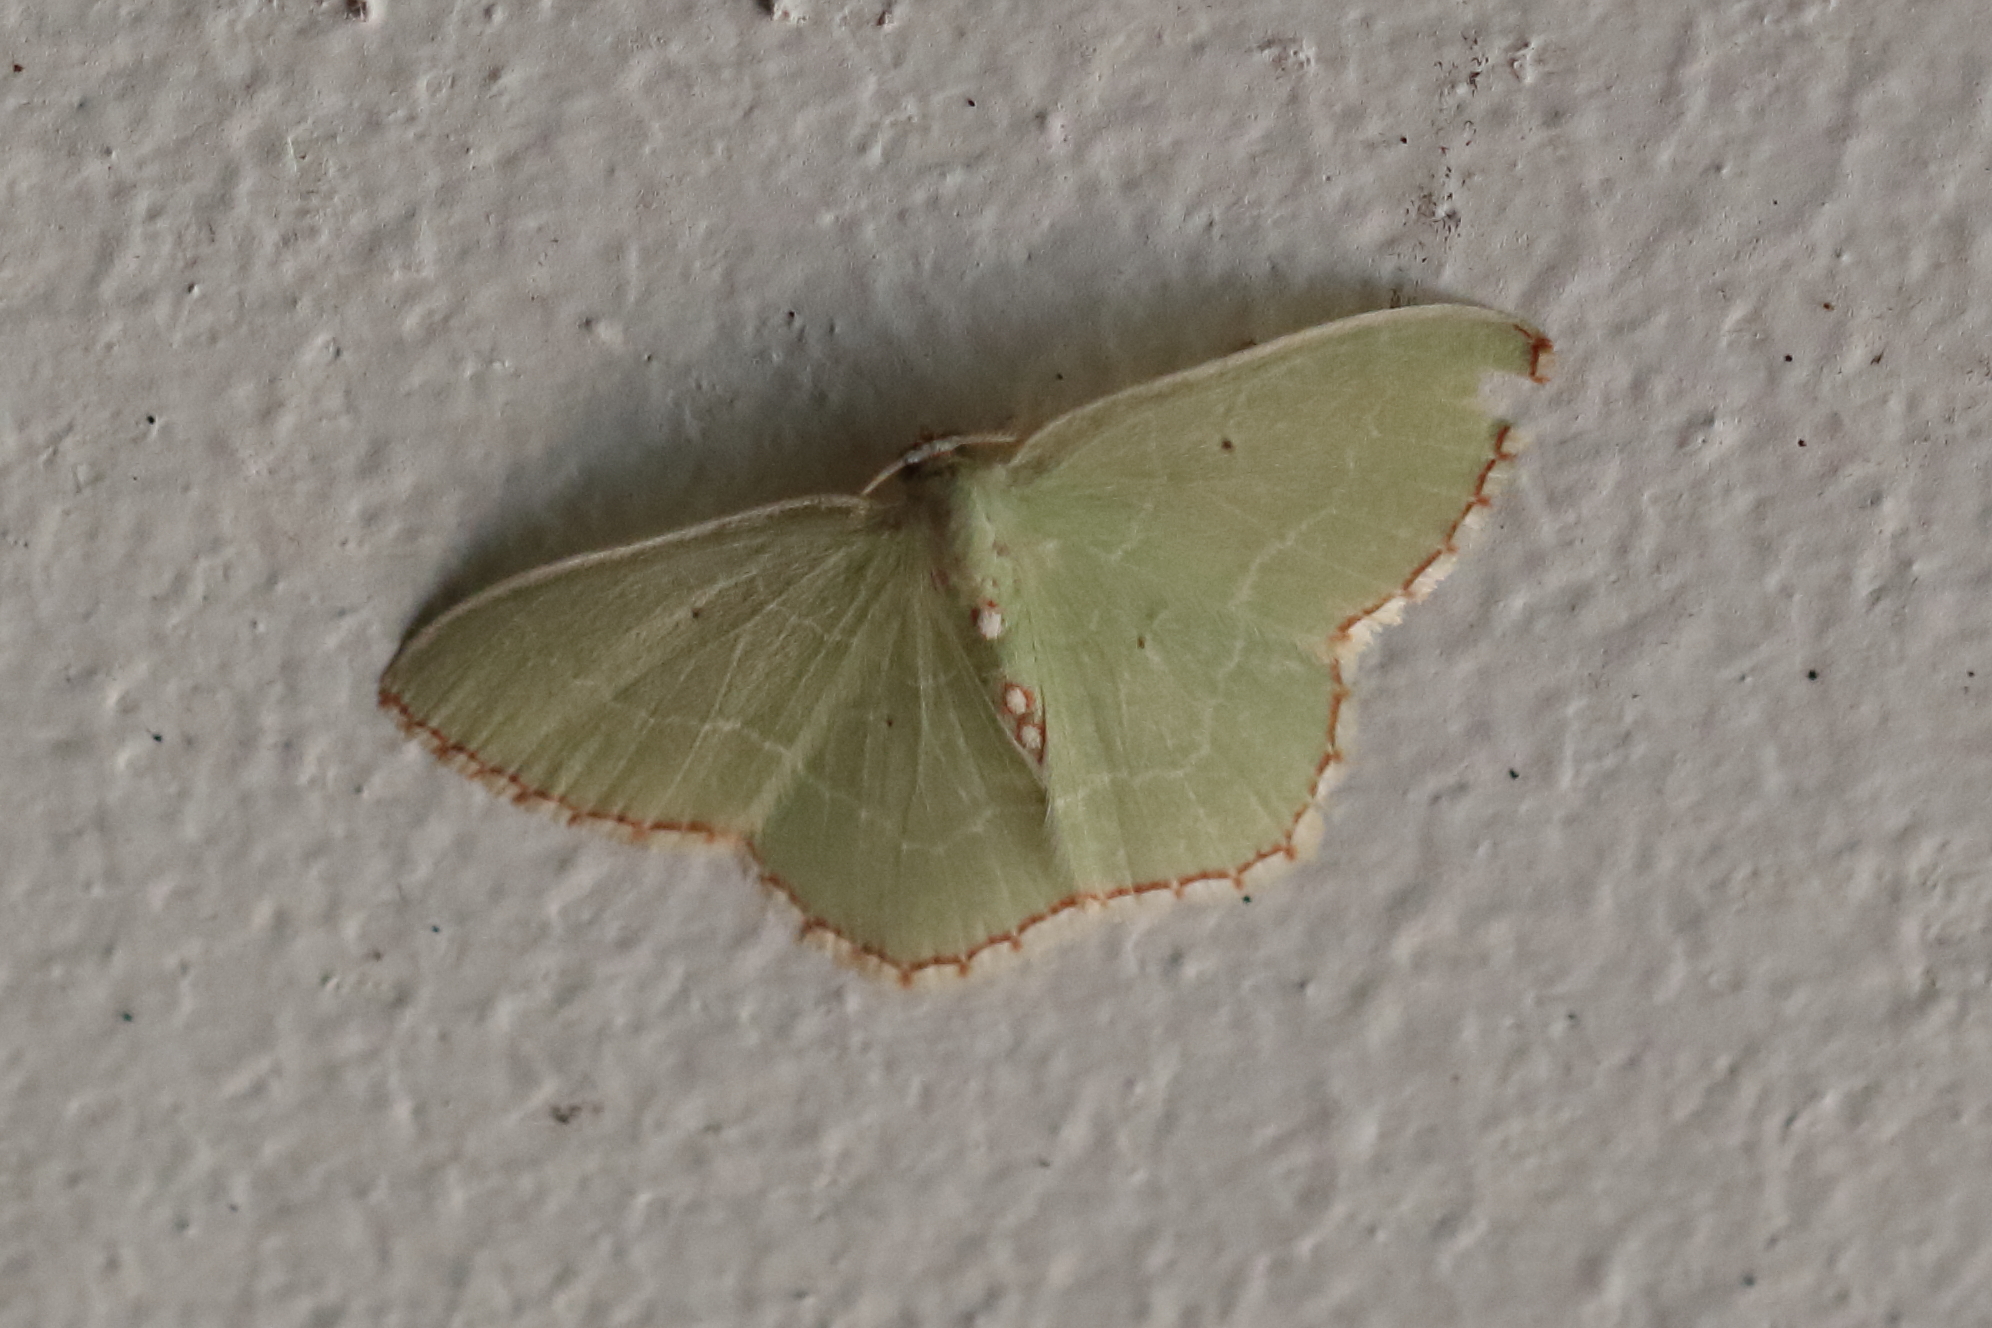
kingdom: Animalia
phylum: Arthropoda
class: Insecta
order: Lepidoptera
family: Geometridae
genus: Nemoria
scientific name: Nemoria lixaria
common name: Red-bordered emerald
